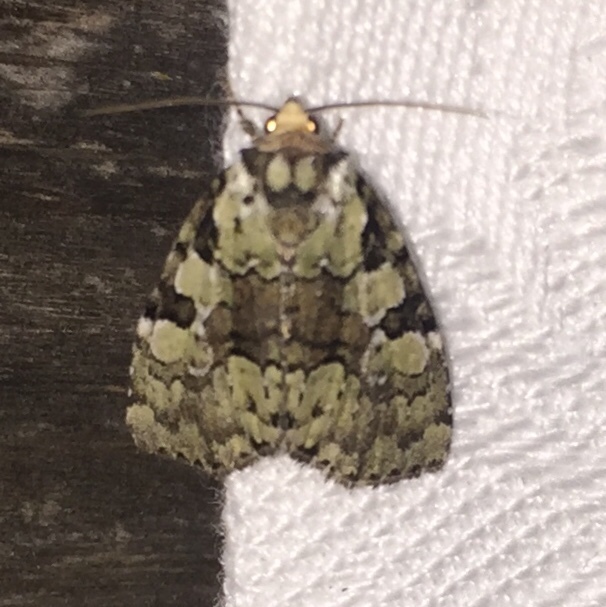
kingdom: Animalia
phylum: Arthropoda
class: Insecta
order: Lepidoptera
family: Noctuidae
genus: Leuconycta
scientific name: Leuconycta lepidula
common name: Marbled-green leuconycta moth
